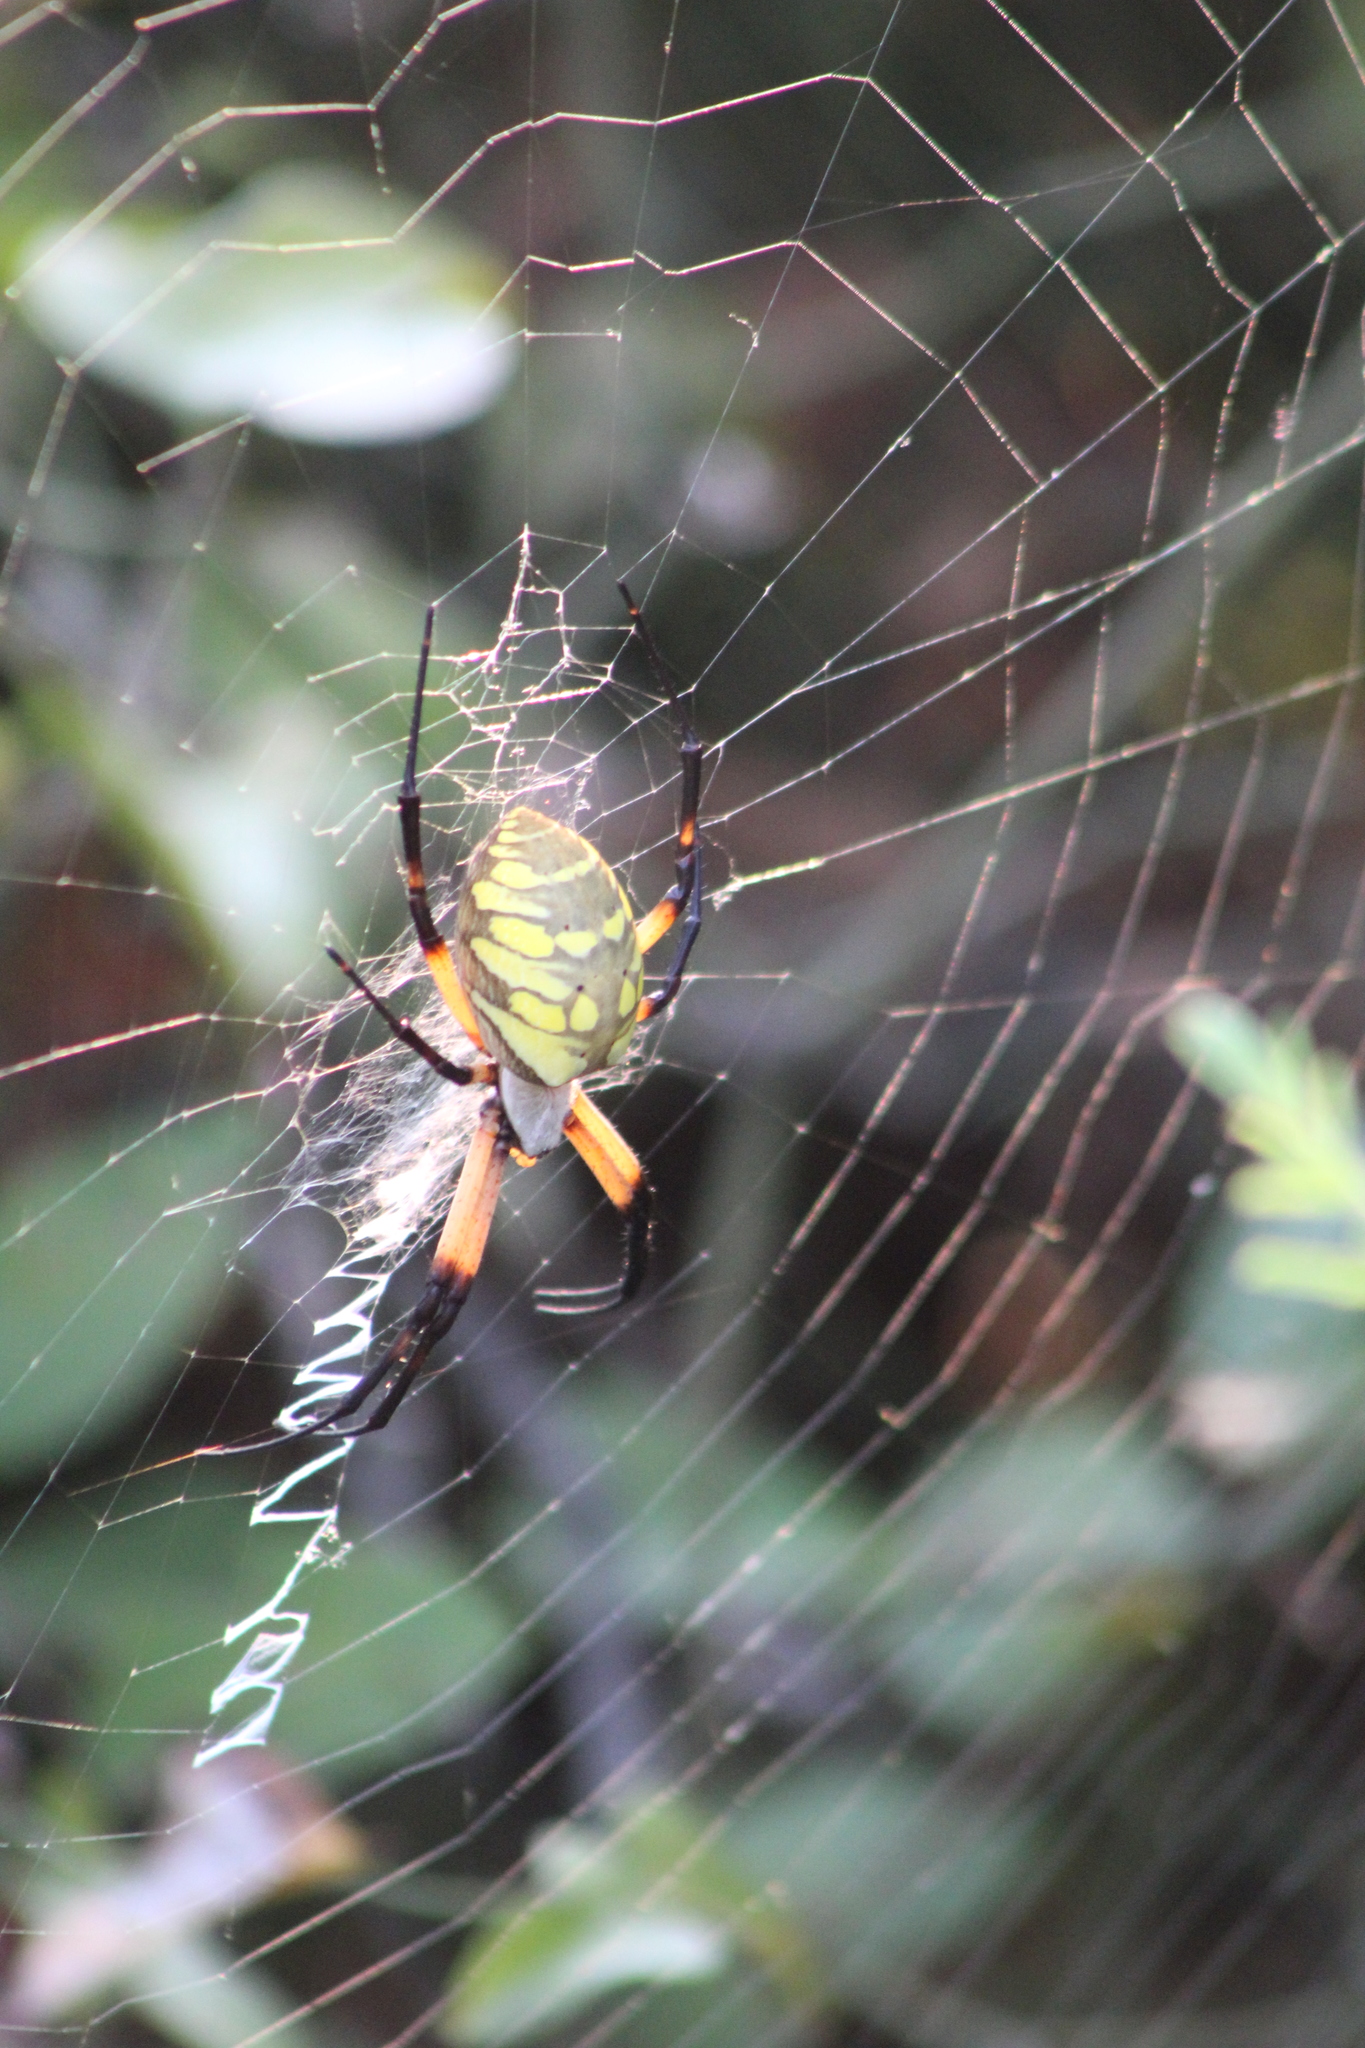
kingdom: Animalia
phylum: Arthropoda
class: Arachnida
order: Araneae
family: Araneidae
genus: Argiope
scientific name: Argiope aurantia
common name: Orb weavers
